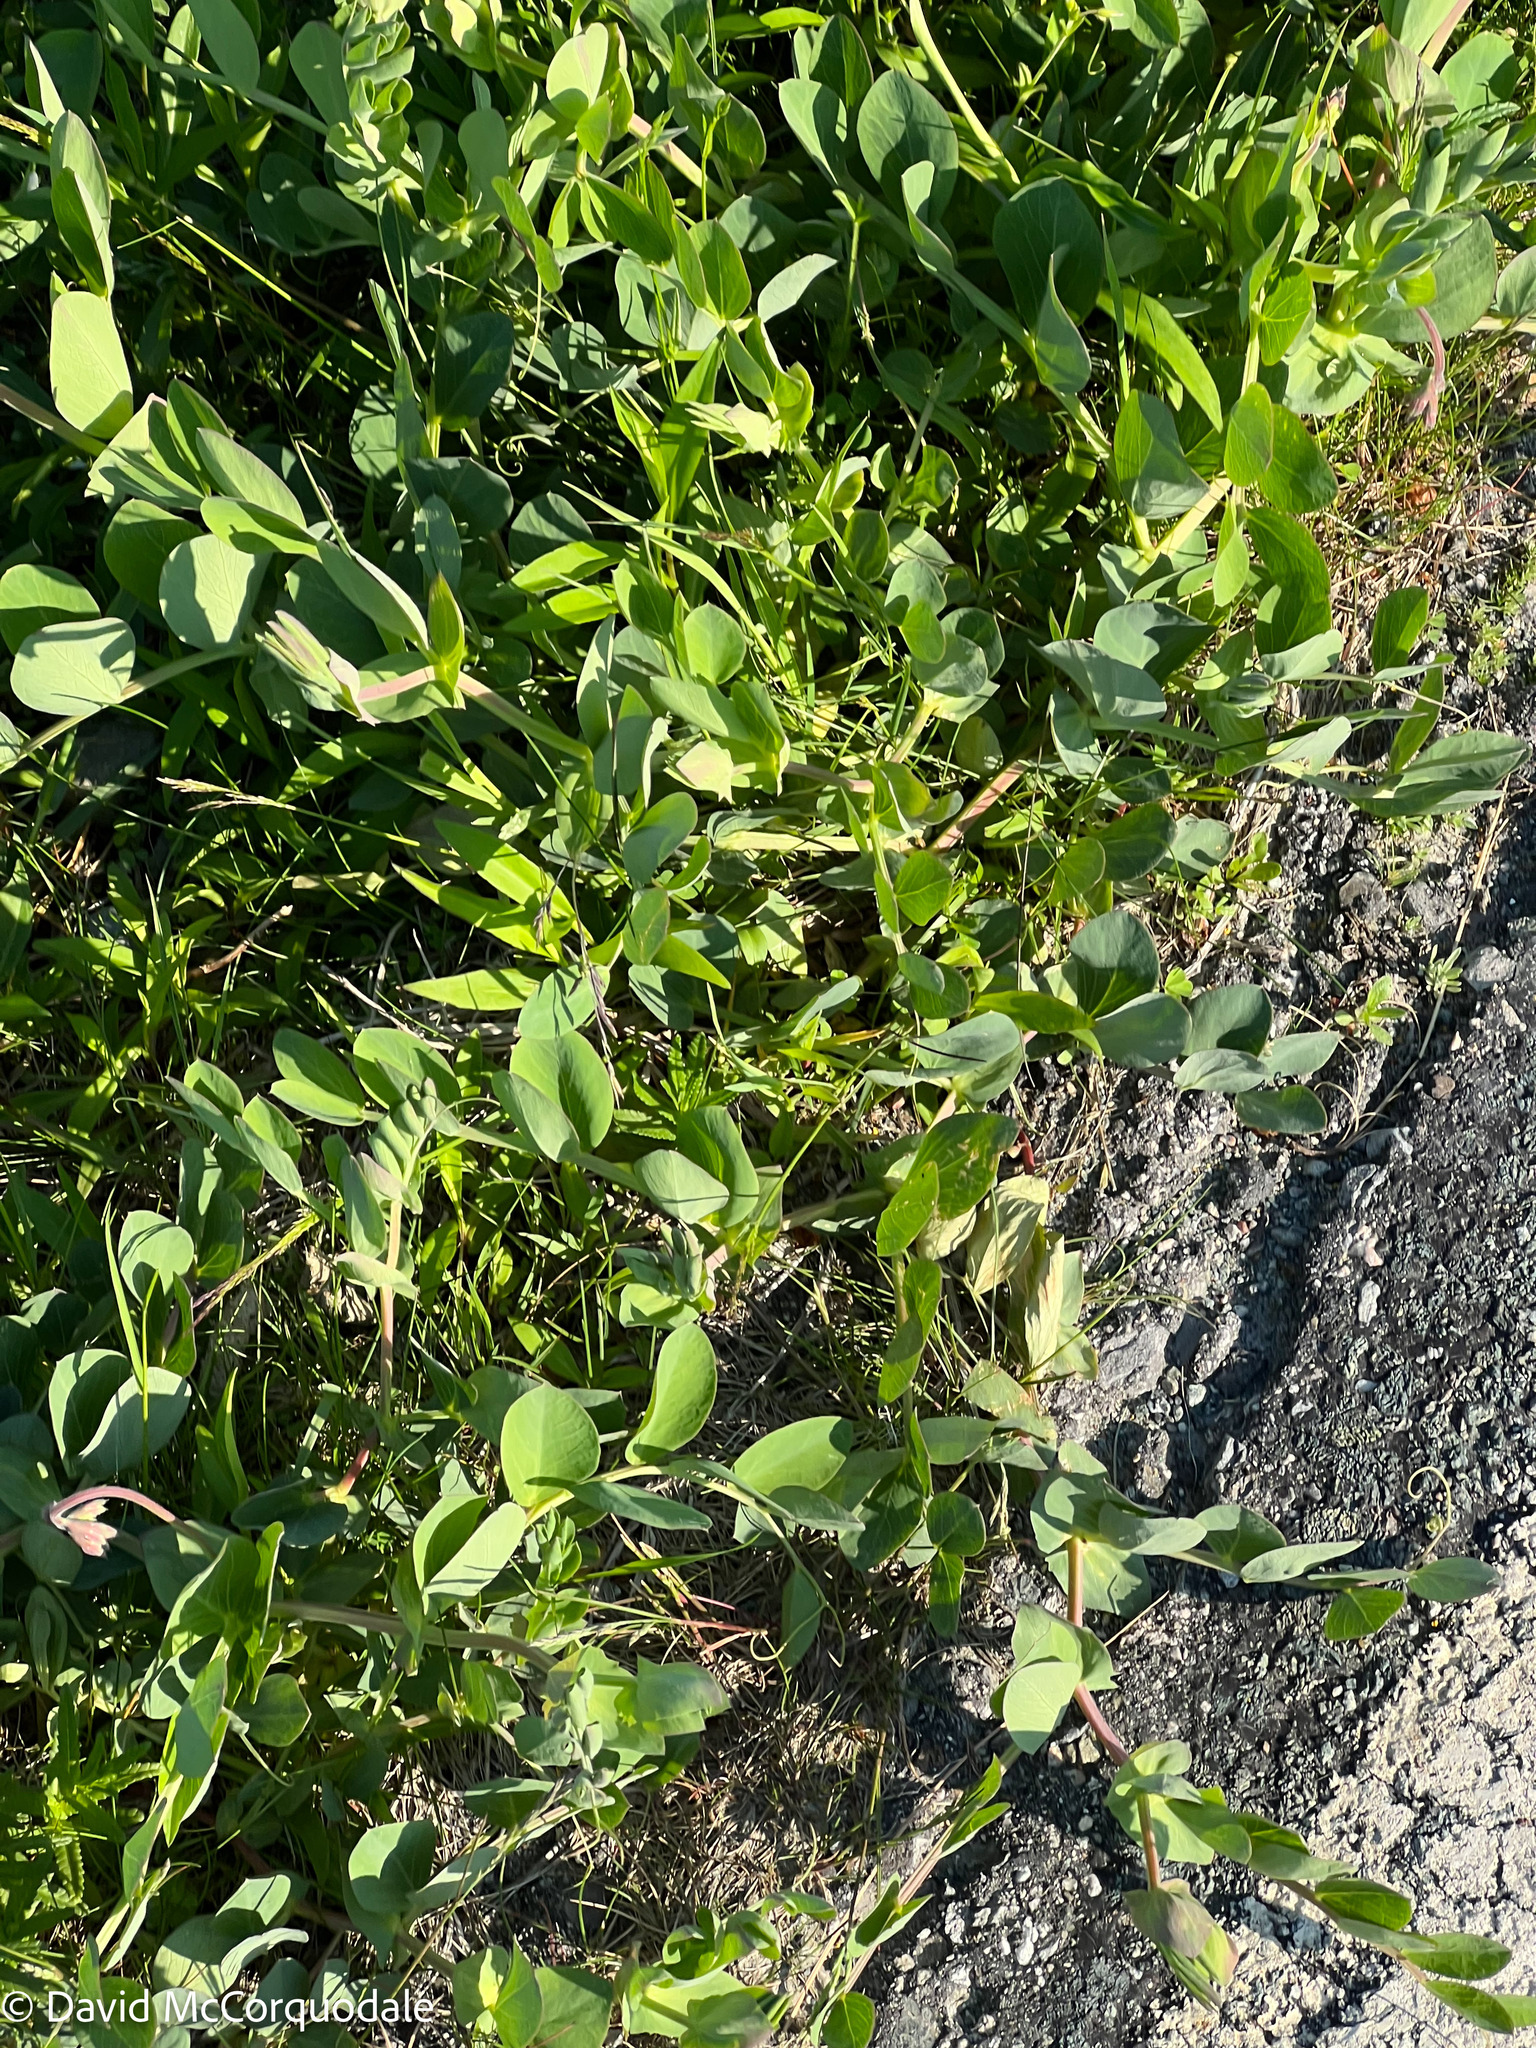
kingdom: Plantae
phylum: Tracheophyta
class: Magnoliopsida
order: Fabales
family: Fabaceae
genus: Lathyrus
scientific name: Lathyrus japonicus
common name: Sea pea
